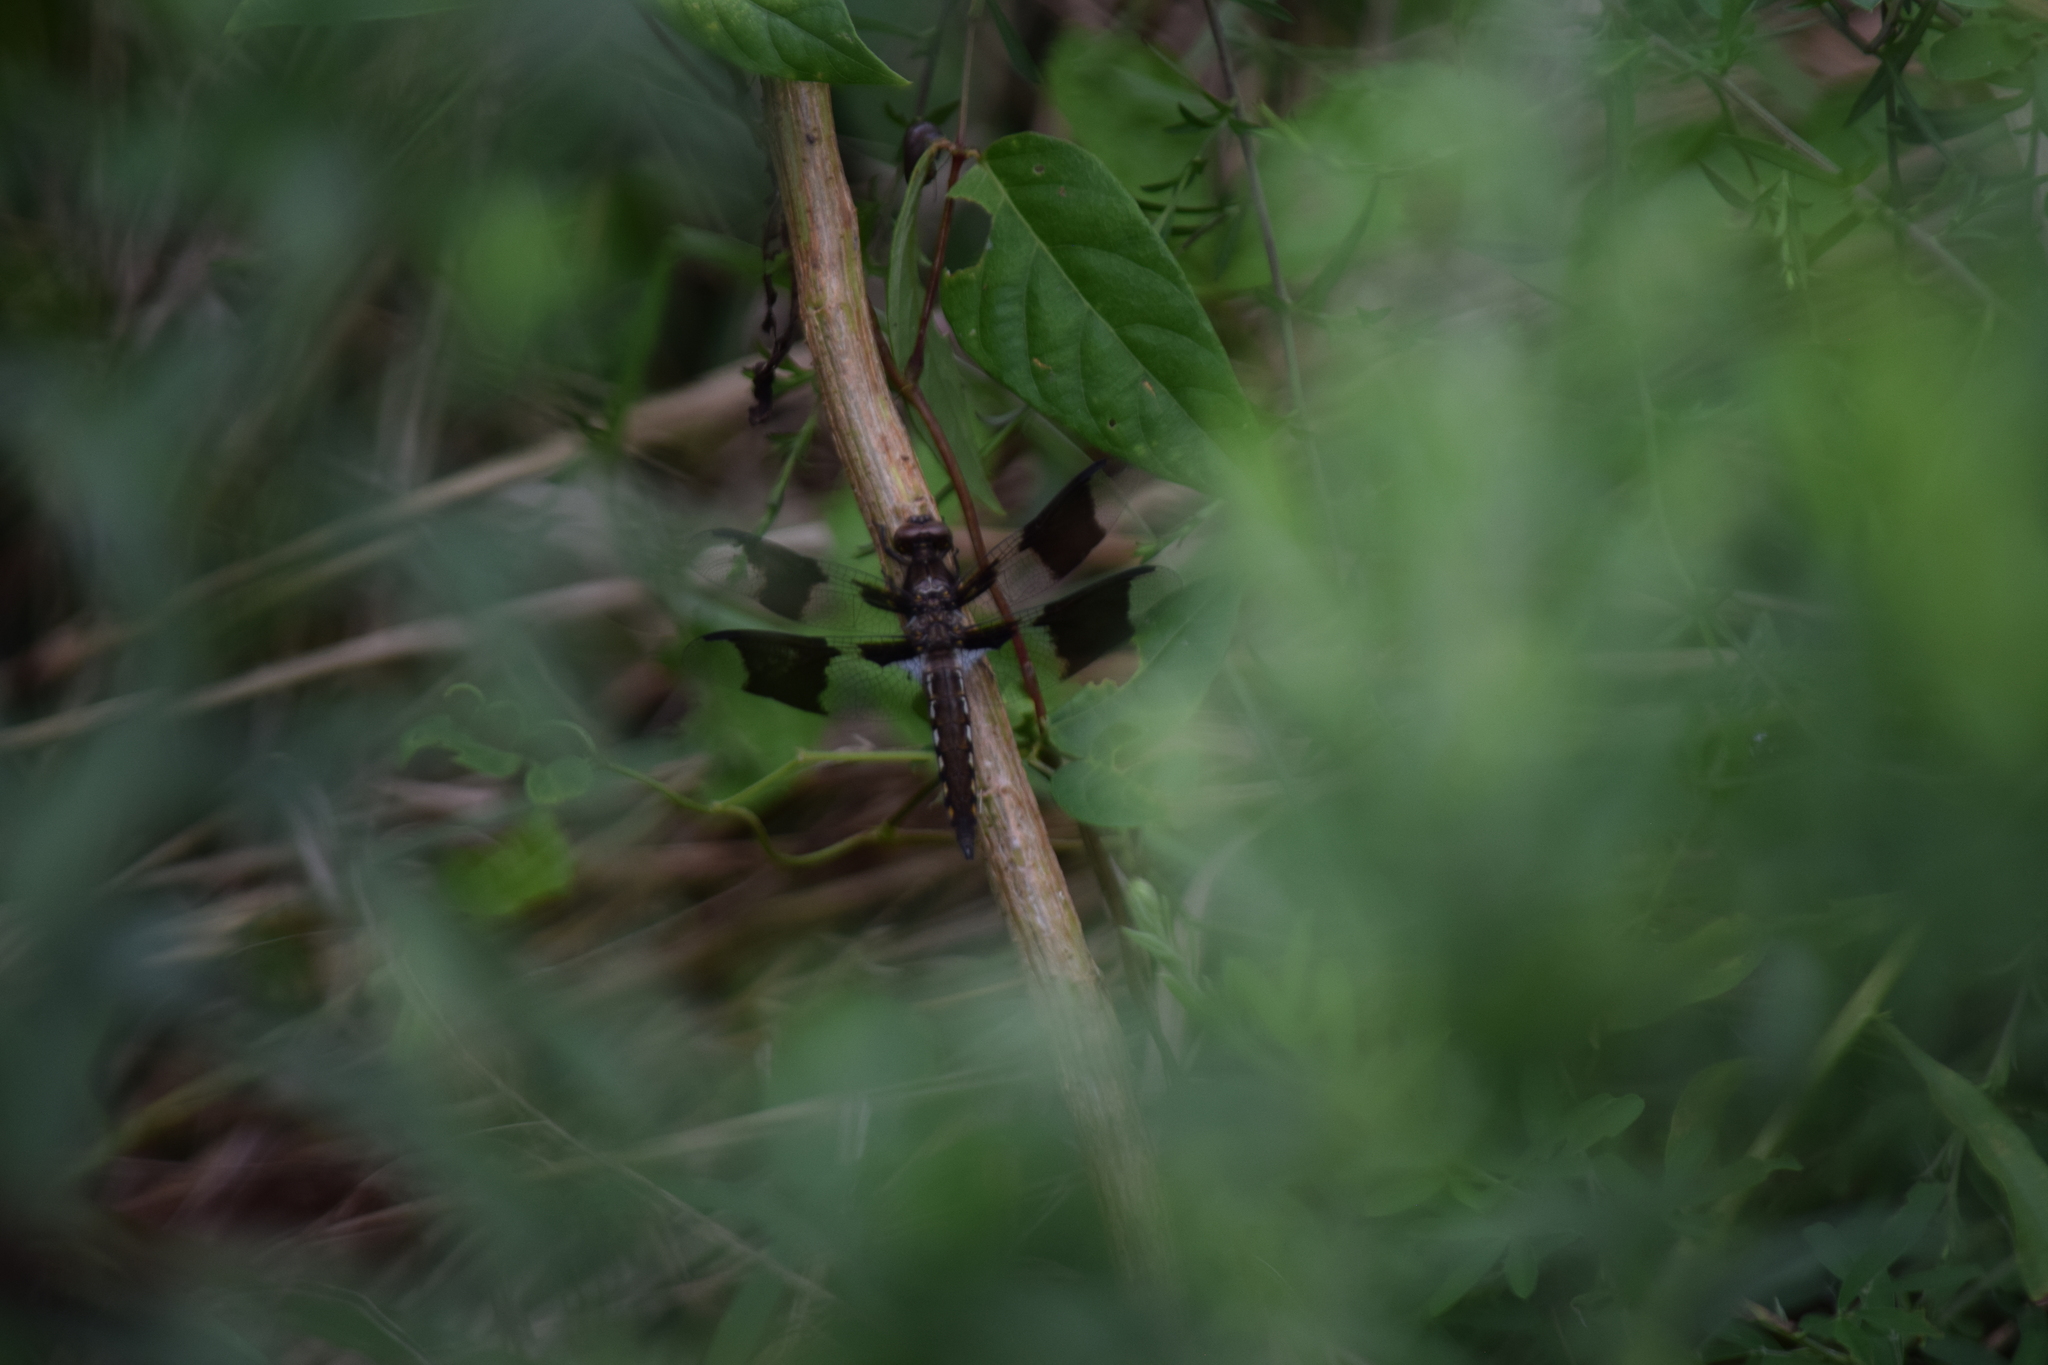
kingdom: Animalia
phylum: Arthropoda
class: Insecta
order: Odonata
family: Libellulidae
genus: Plathemis
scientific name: Plathemis lydia
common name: Common whitetail
